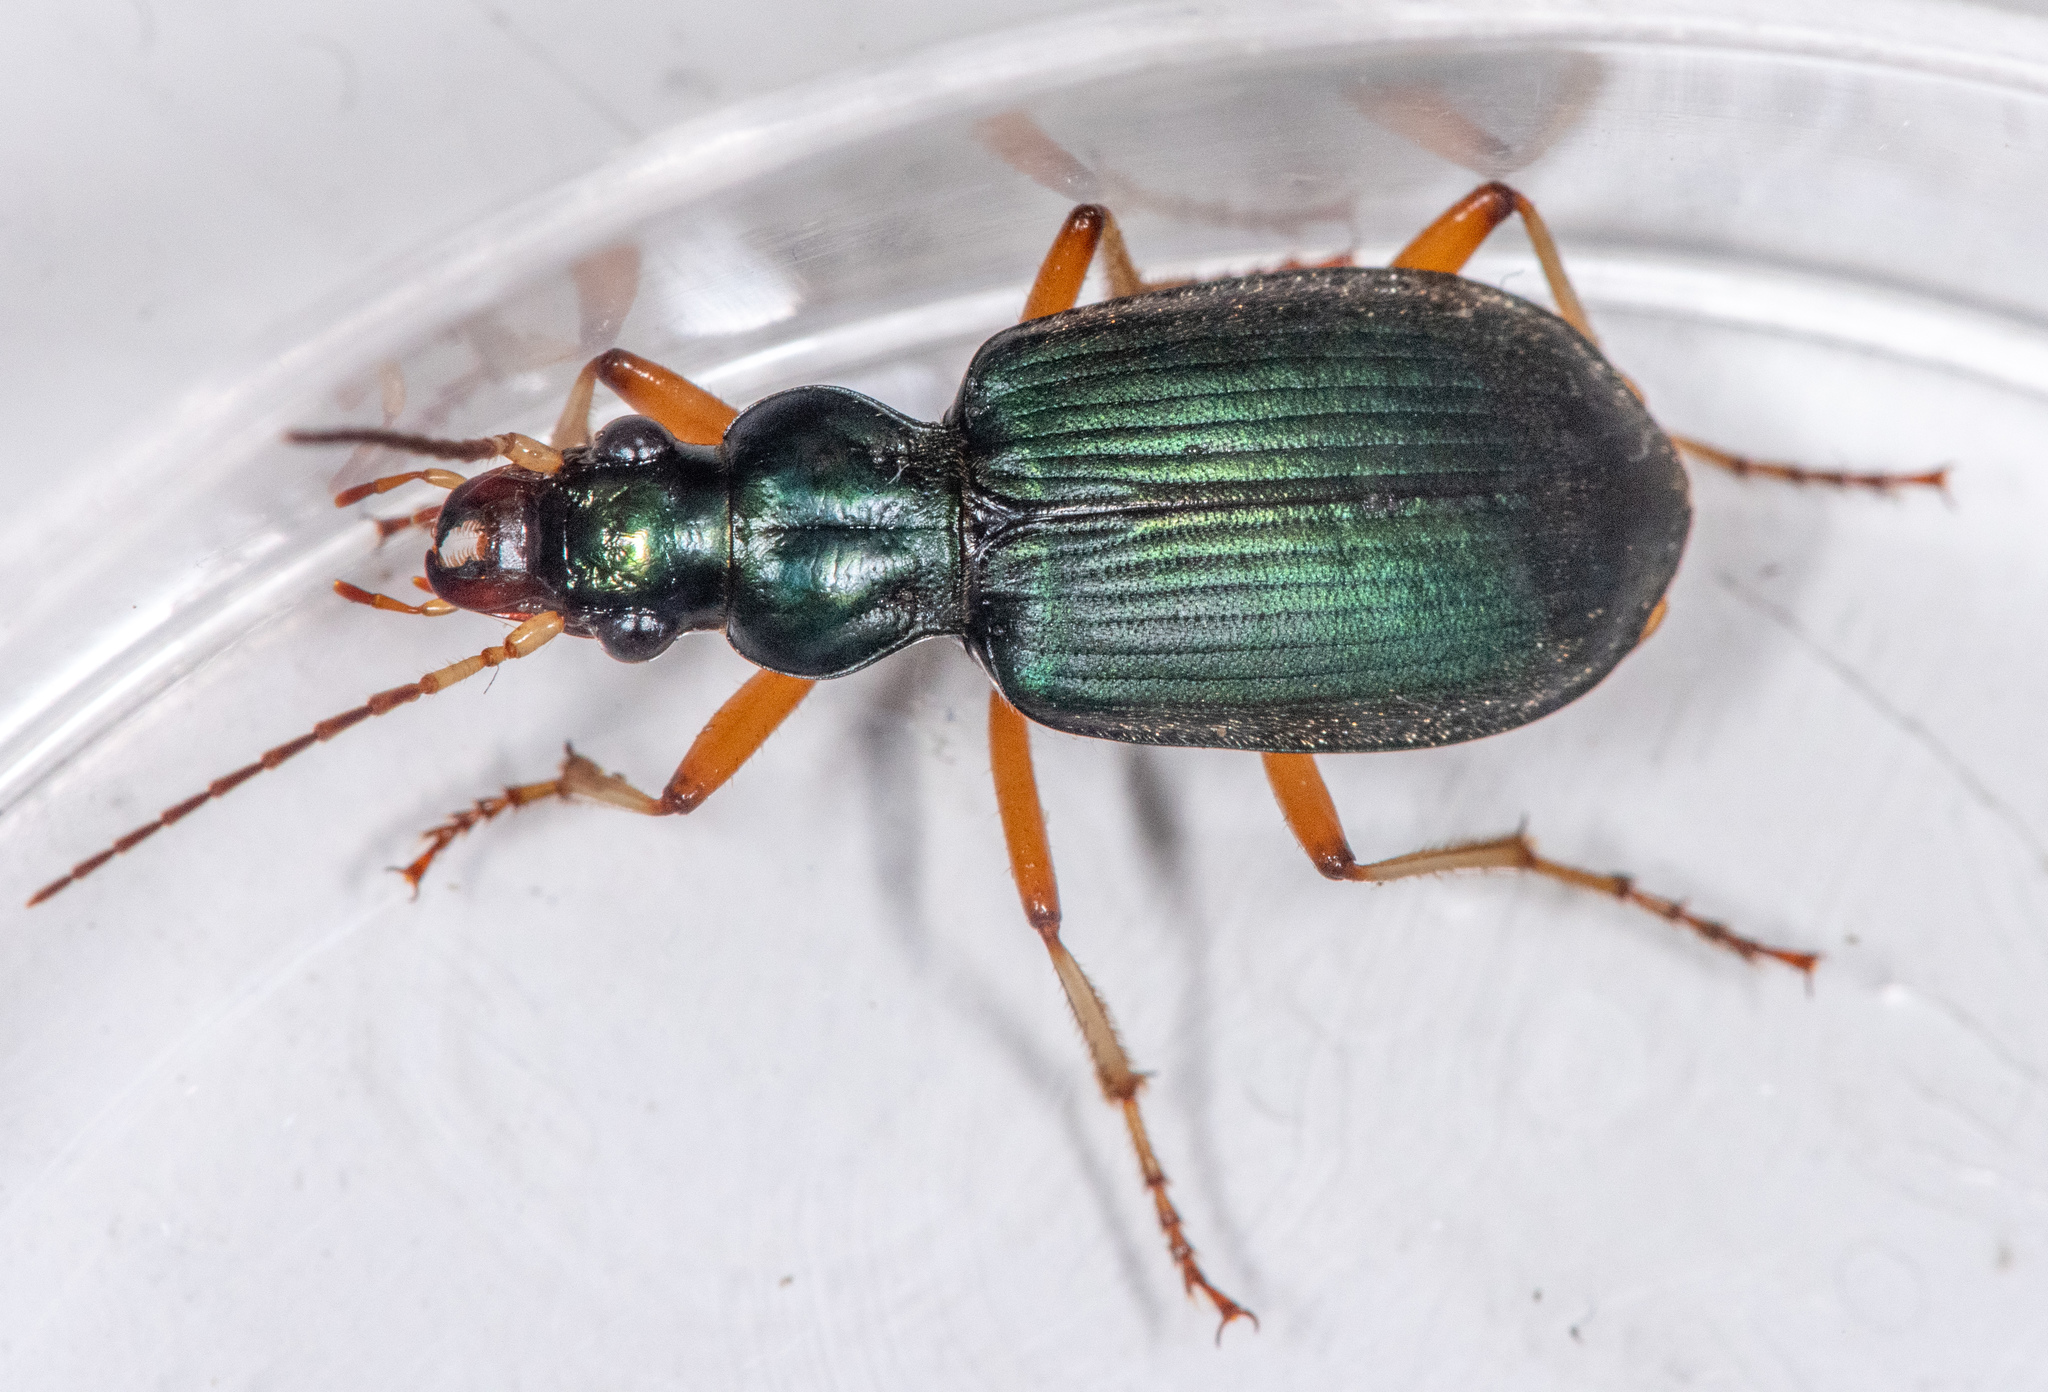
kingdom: Animalia
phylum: Arthropoda
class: Insecta
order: Coleoptera
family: Carabidae
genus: Chlaenius
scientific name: Chlaenius leucoscelis
